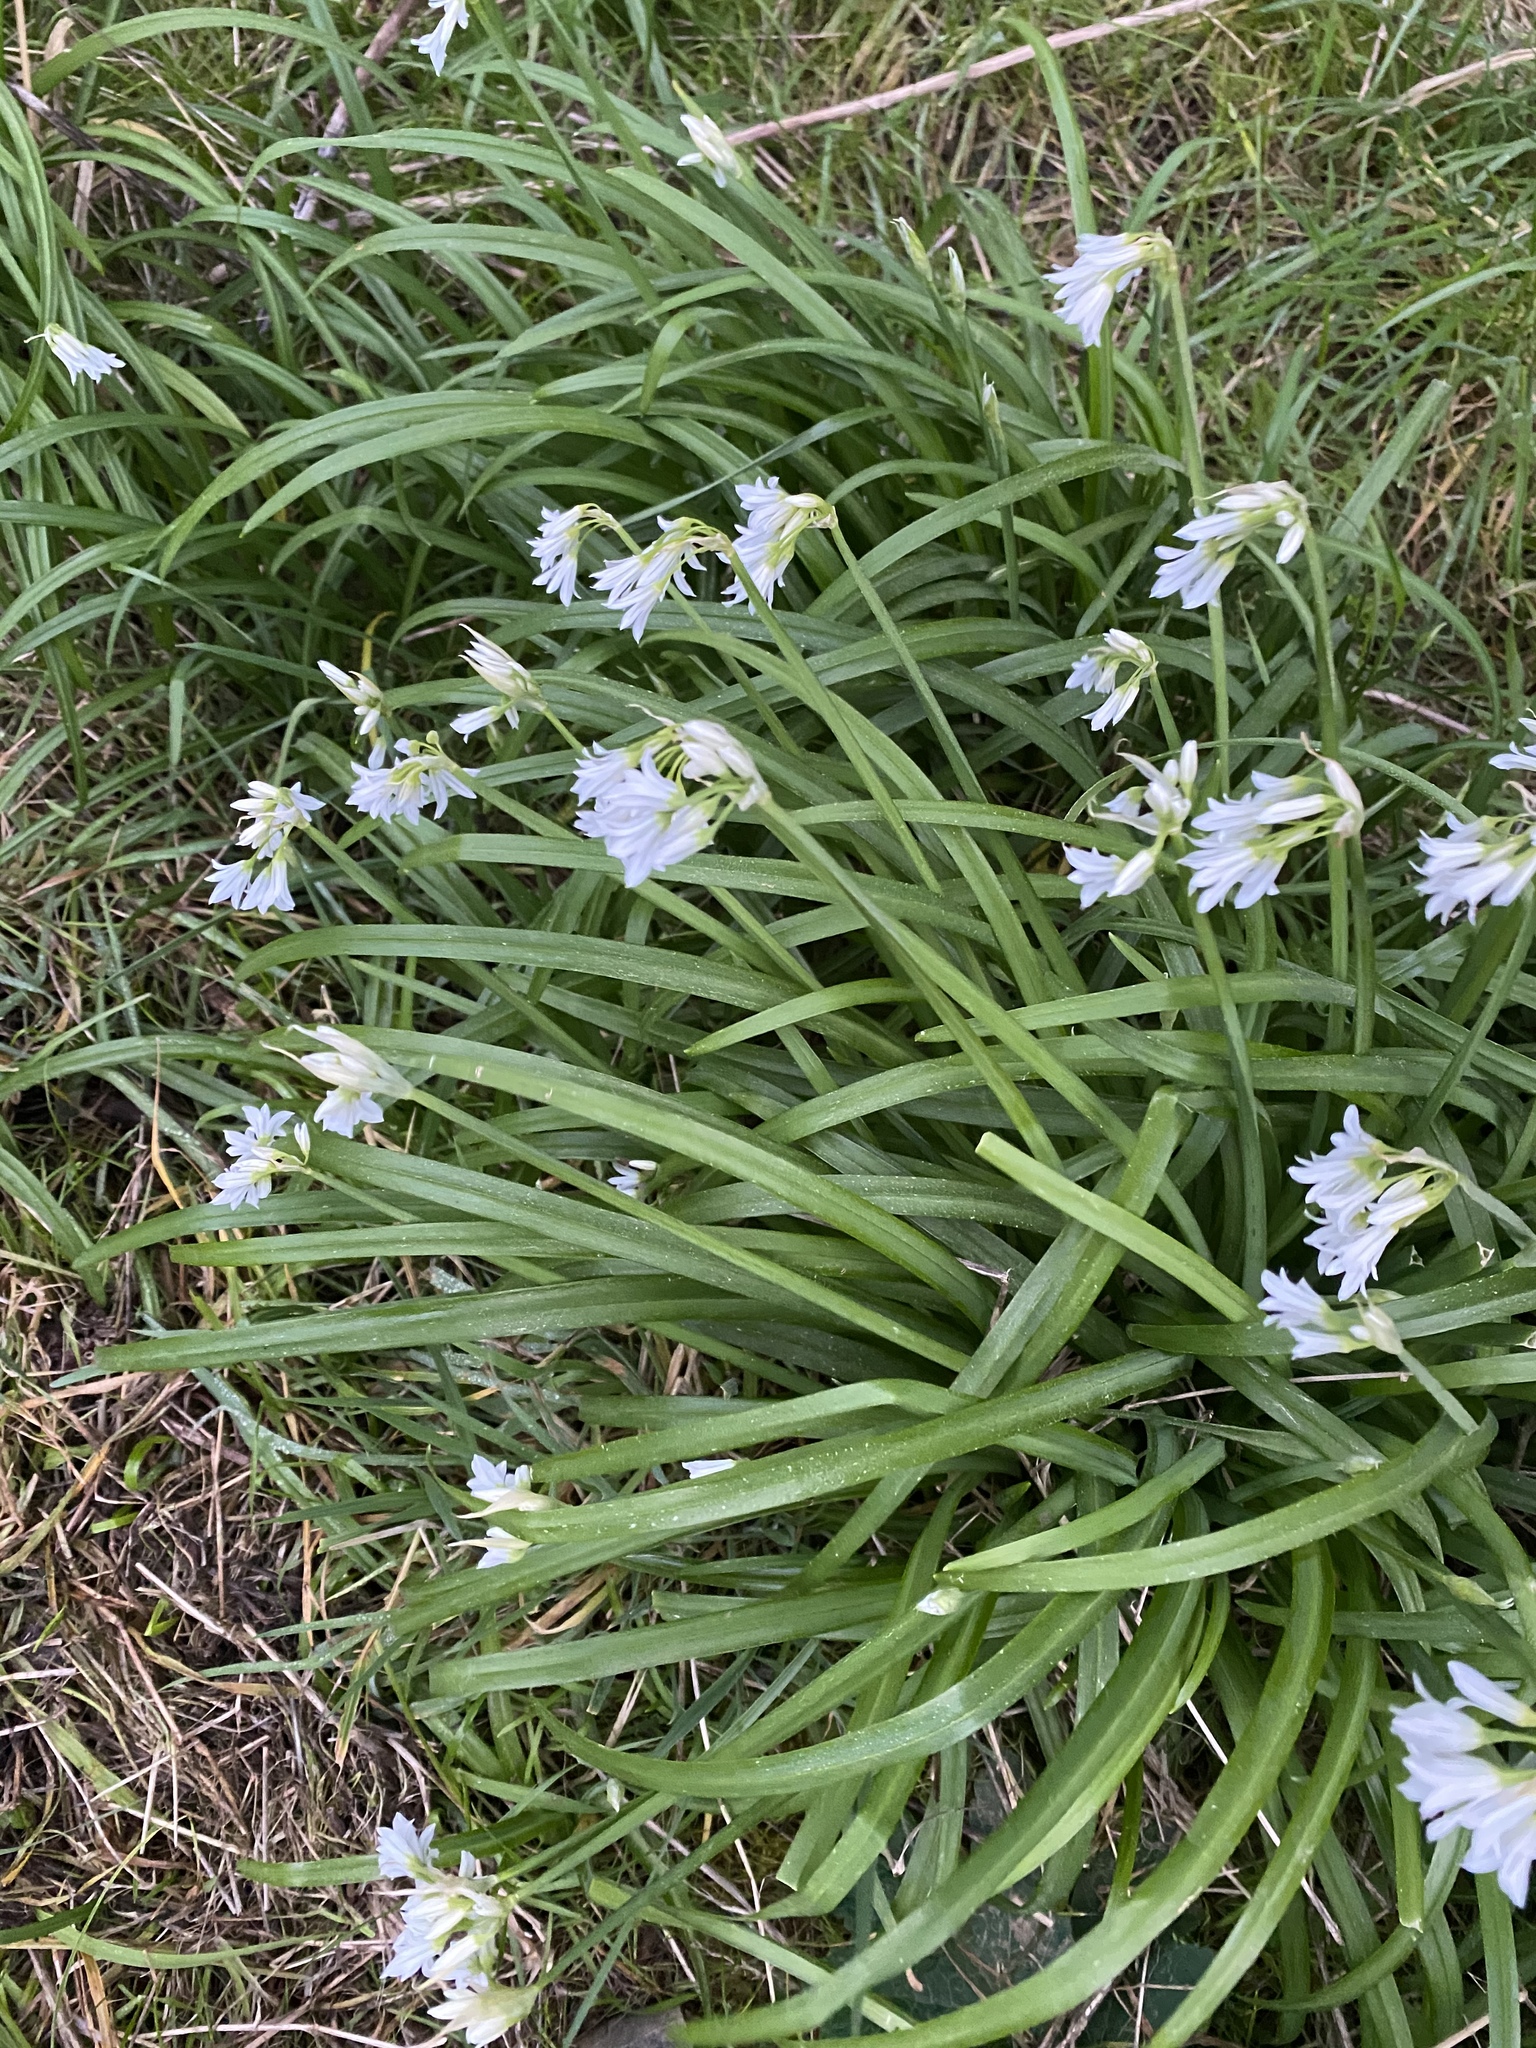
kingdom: Plantae
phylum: Tracheophyta
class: Liliopsida
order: Asparagales
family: Amaryllidaceae
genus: Allium
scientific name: Allium triquetrum
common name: Three-cornered garlic
